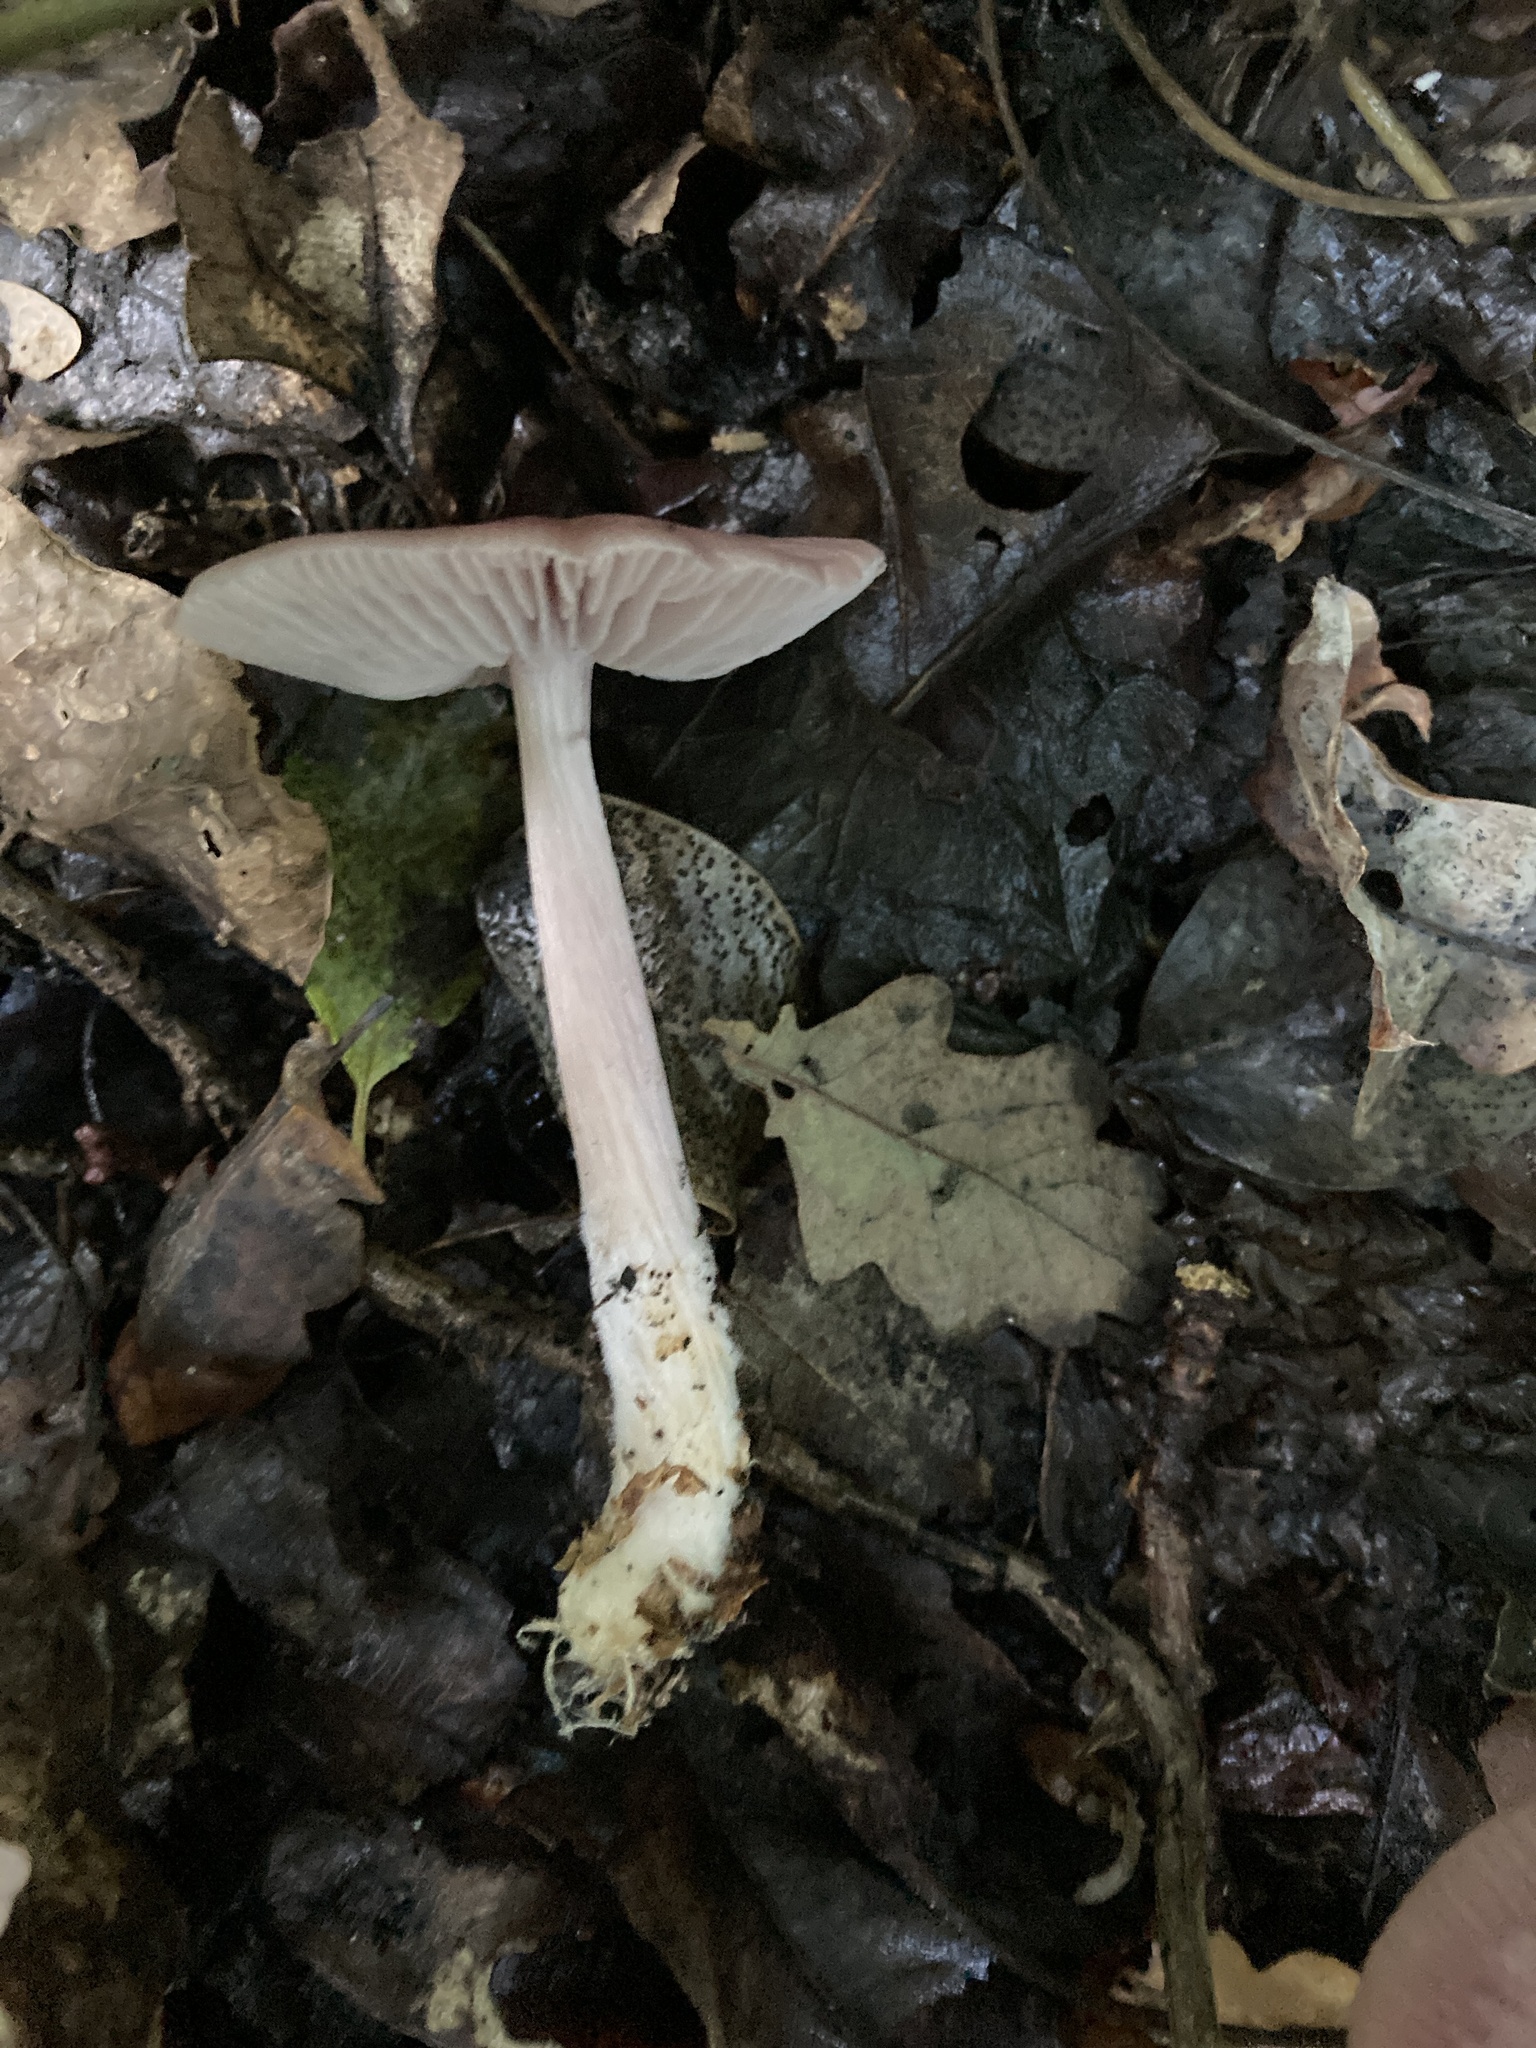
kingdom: Fungi
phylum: Basidiomycota
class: Agaricomycetes
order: Agaricales
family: Mycenaceae
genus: Mycena
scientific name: Mycena rosea
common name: Rosy bonnet
